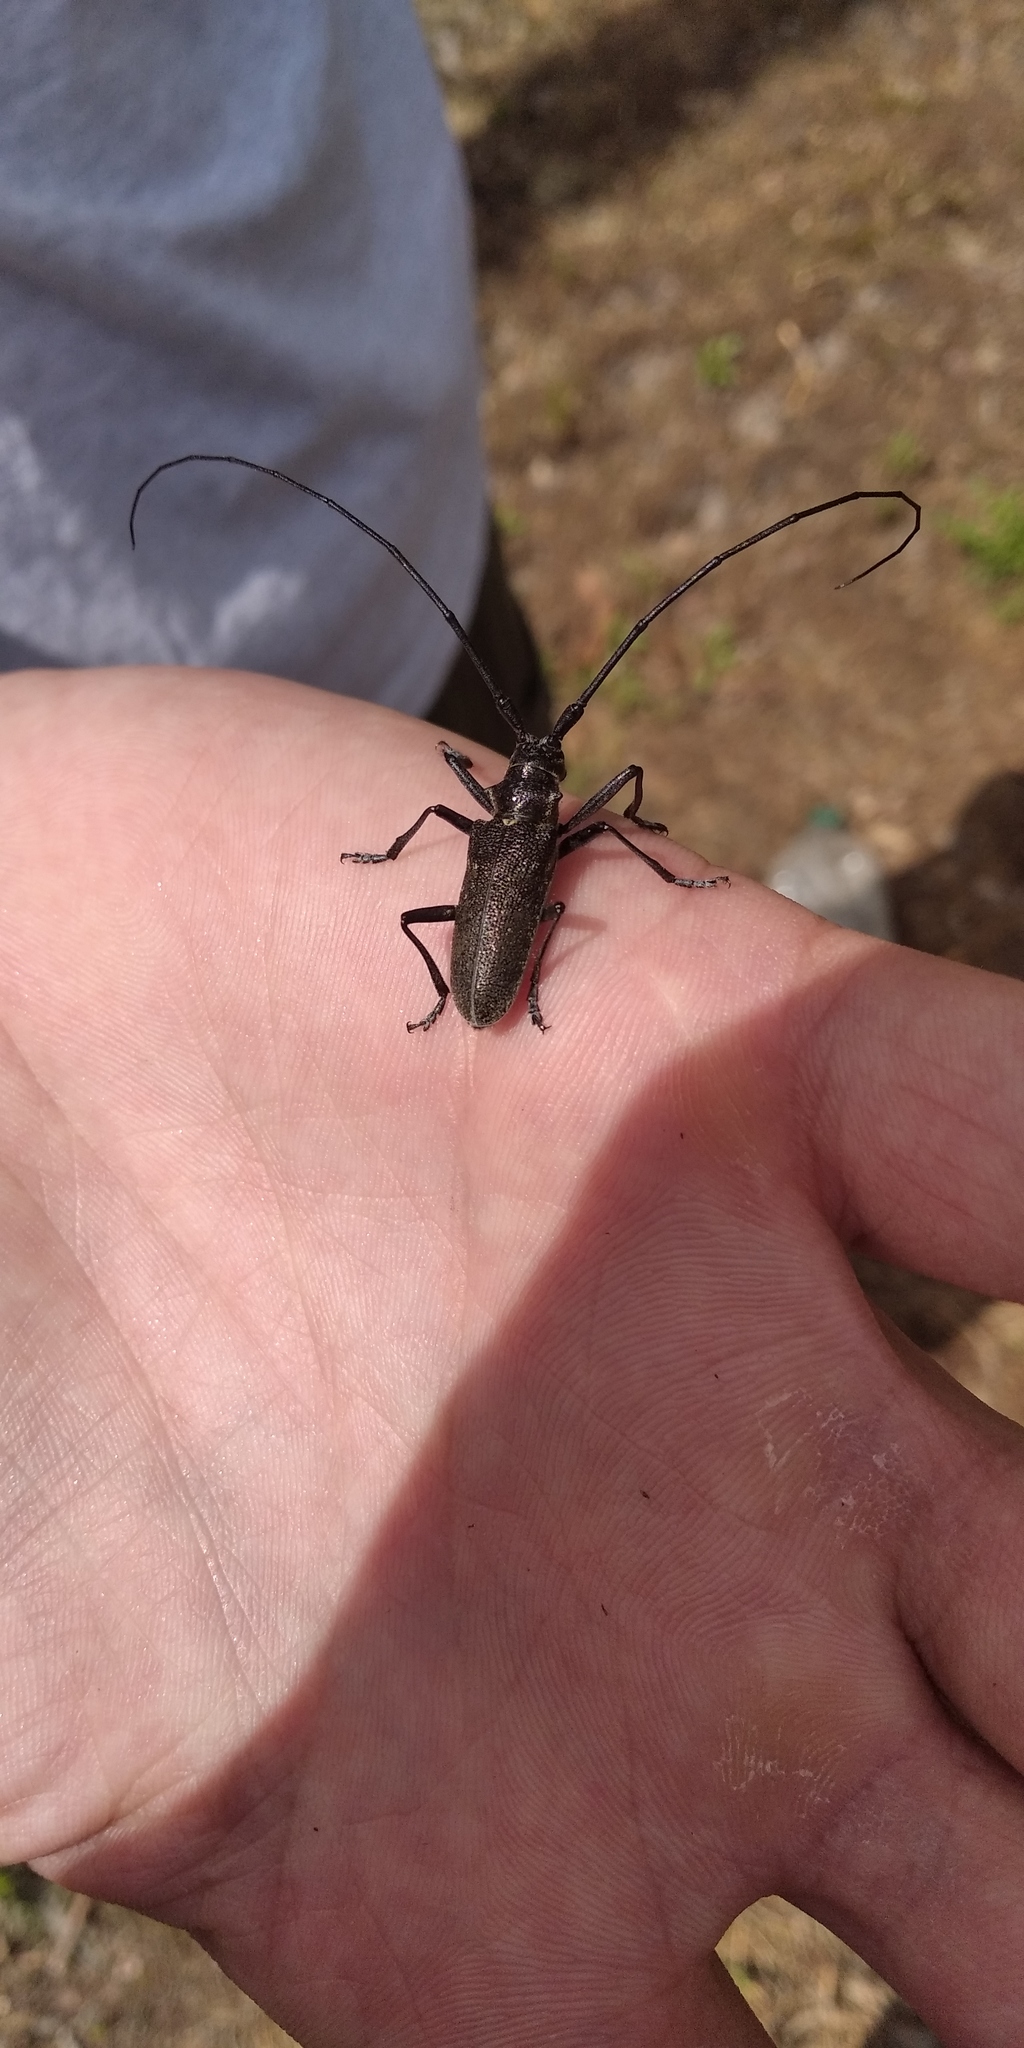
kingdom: Animalia
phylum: Arthropoda
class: Insecta
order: Coleoptera
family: Cerambycidae
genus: Monochamus
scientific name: Monochamus sutor
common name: Pine sawyer
